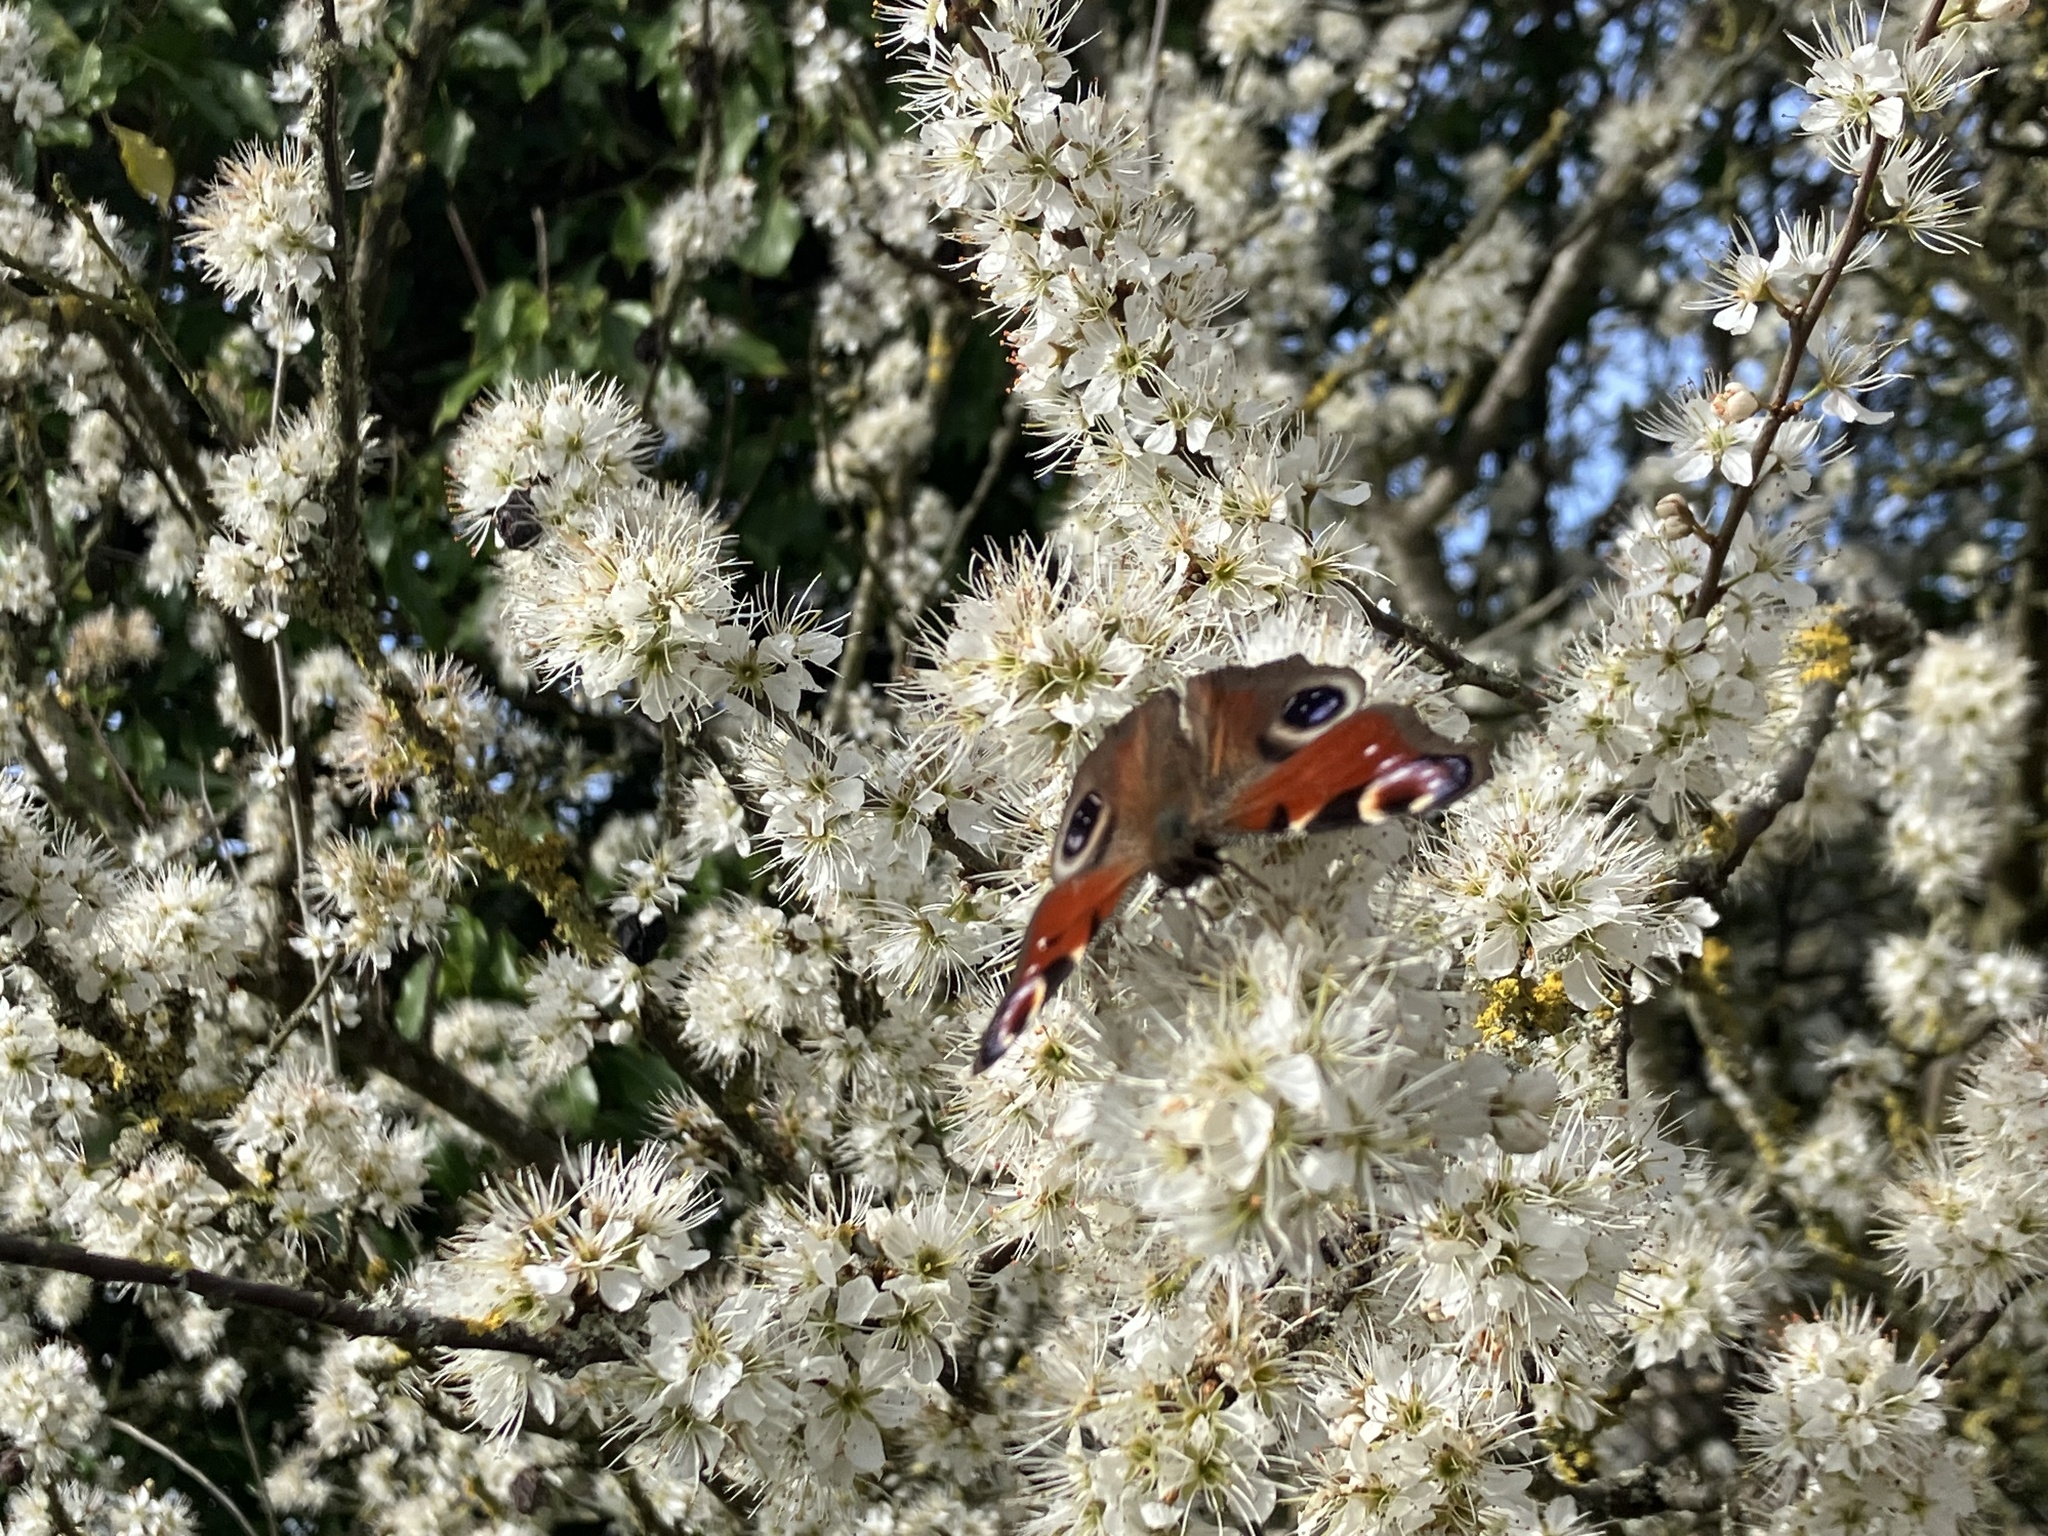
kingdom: Animalia
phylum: Arthropoda
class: Insecta
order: Lepidoptera
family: Nymphalidae
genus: Aglais
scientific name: Aglais io
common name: Peacock
